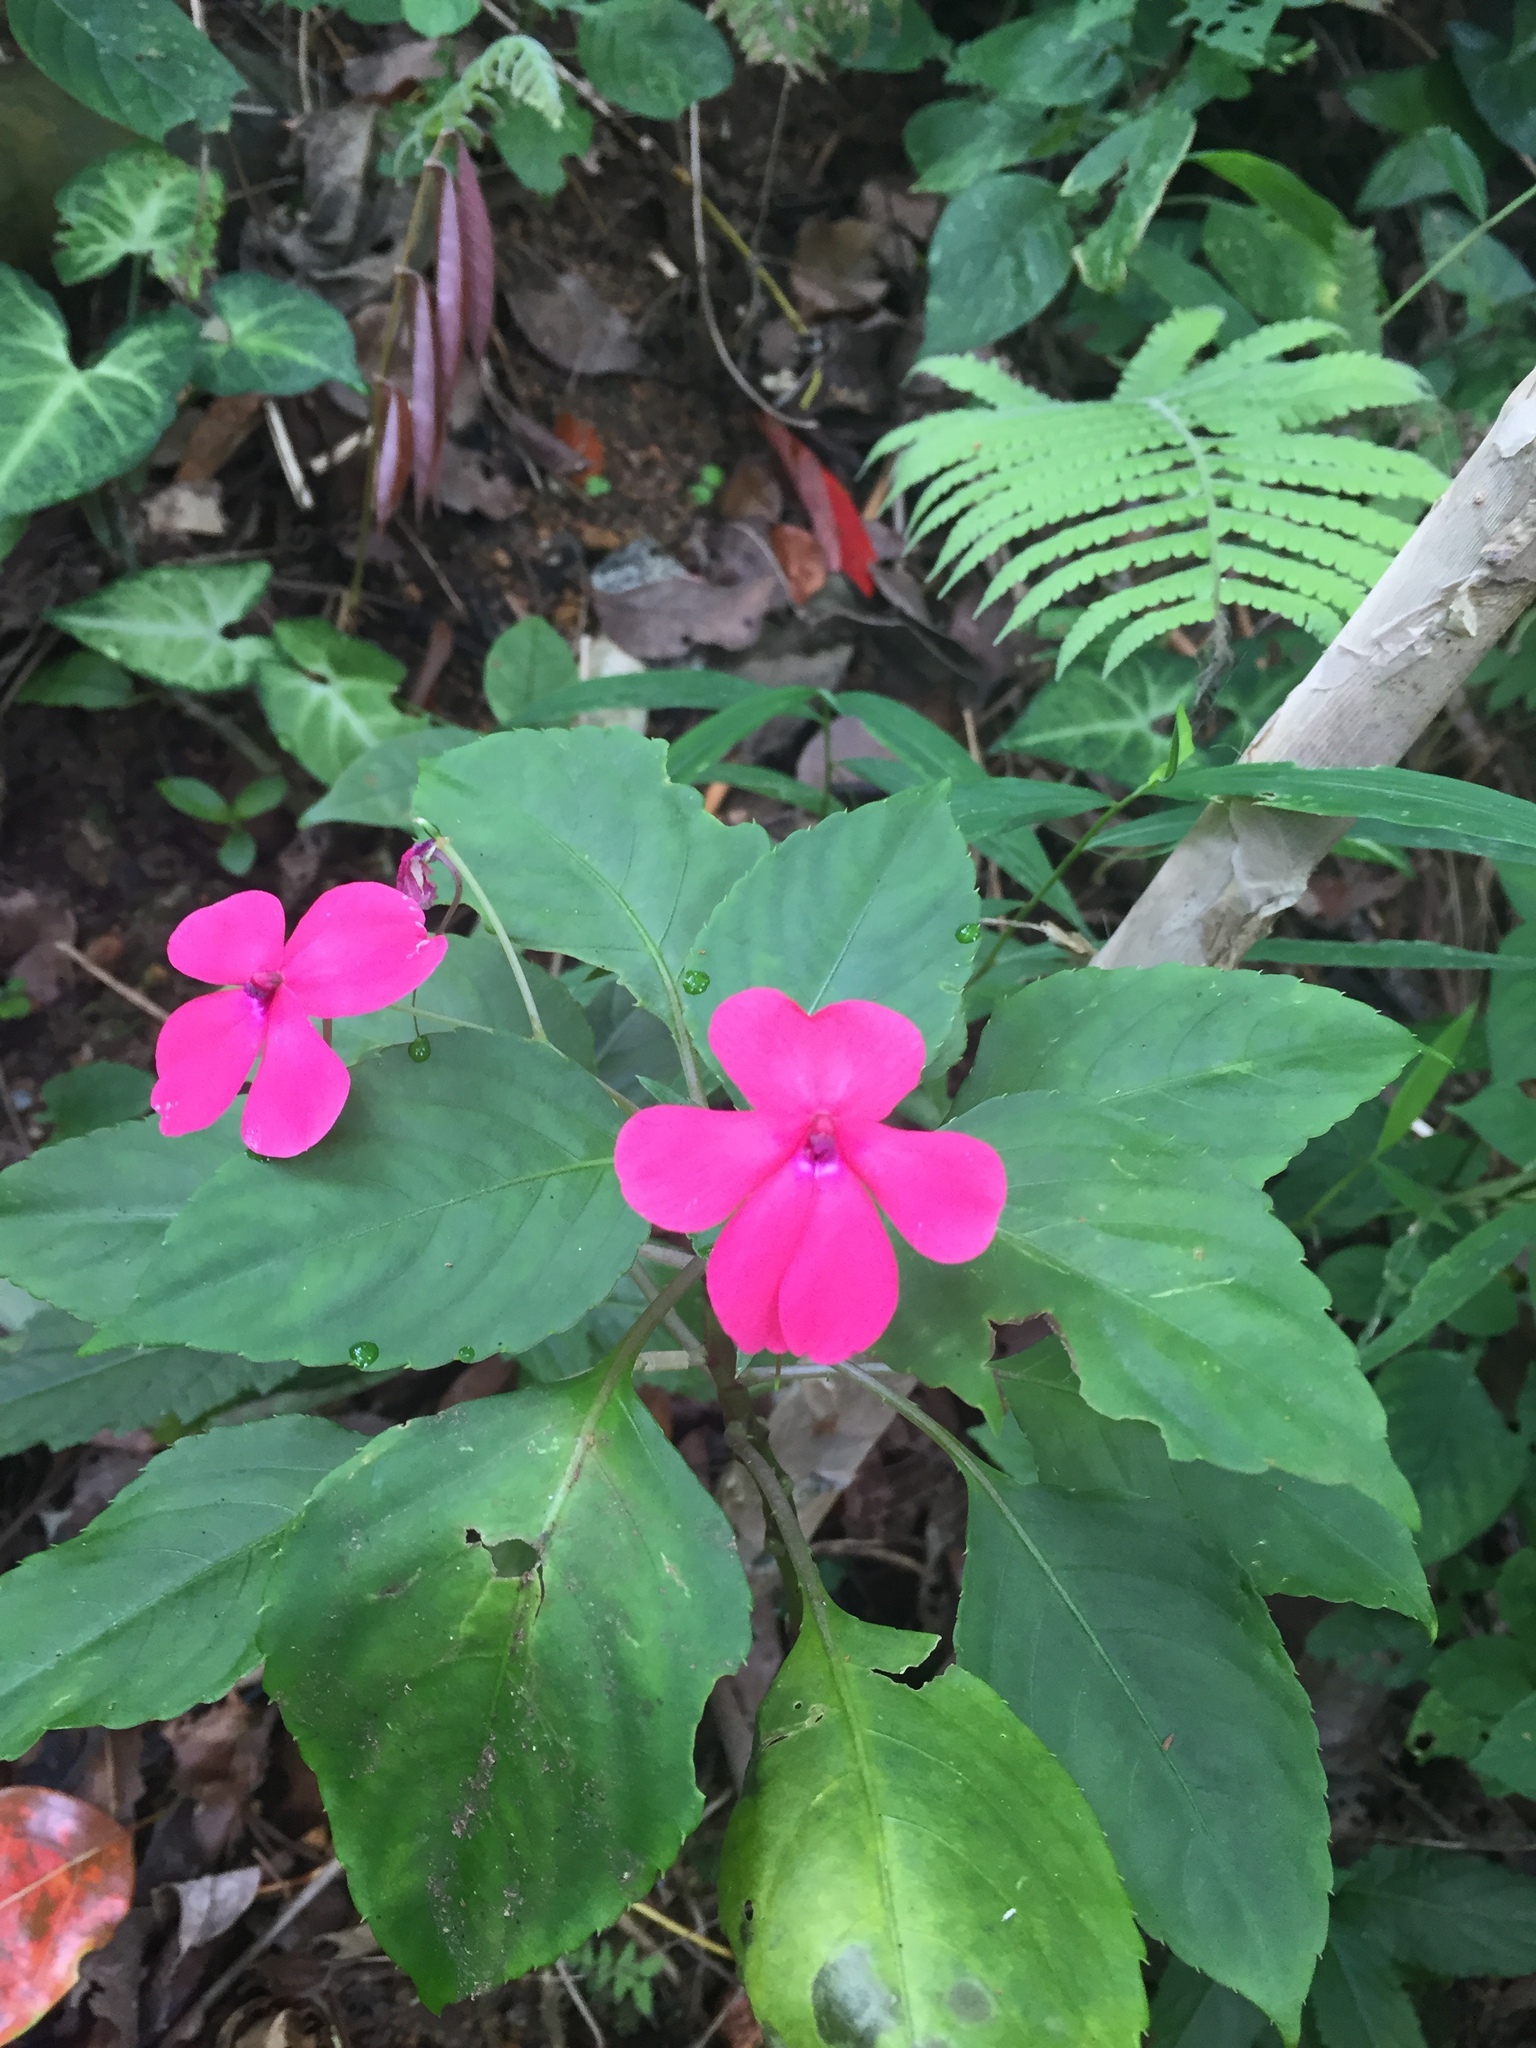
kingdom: Plantae
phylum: Tracheophyta
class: Magnoliopsida
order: Ericales
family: Balsaminaceae
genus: Impatiens
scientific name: Impatiens walleriana
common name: Buzzy lizzy
